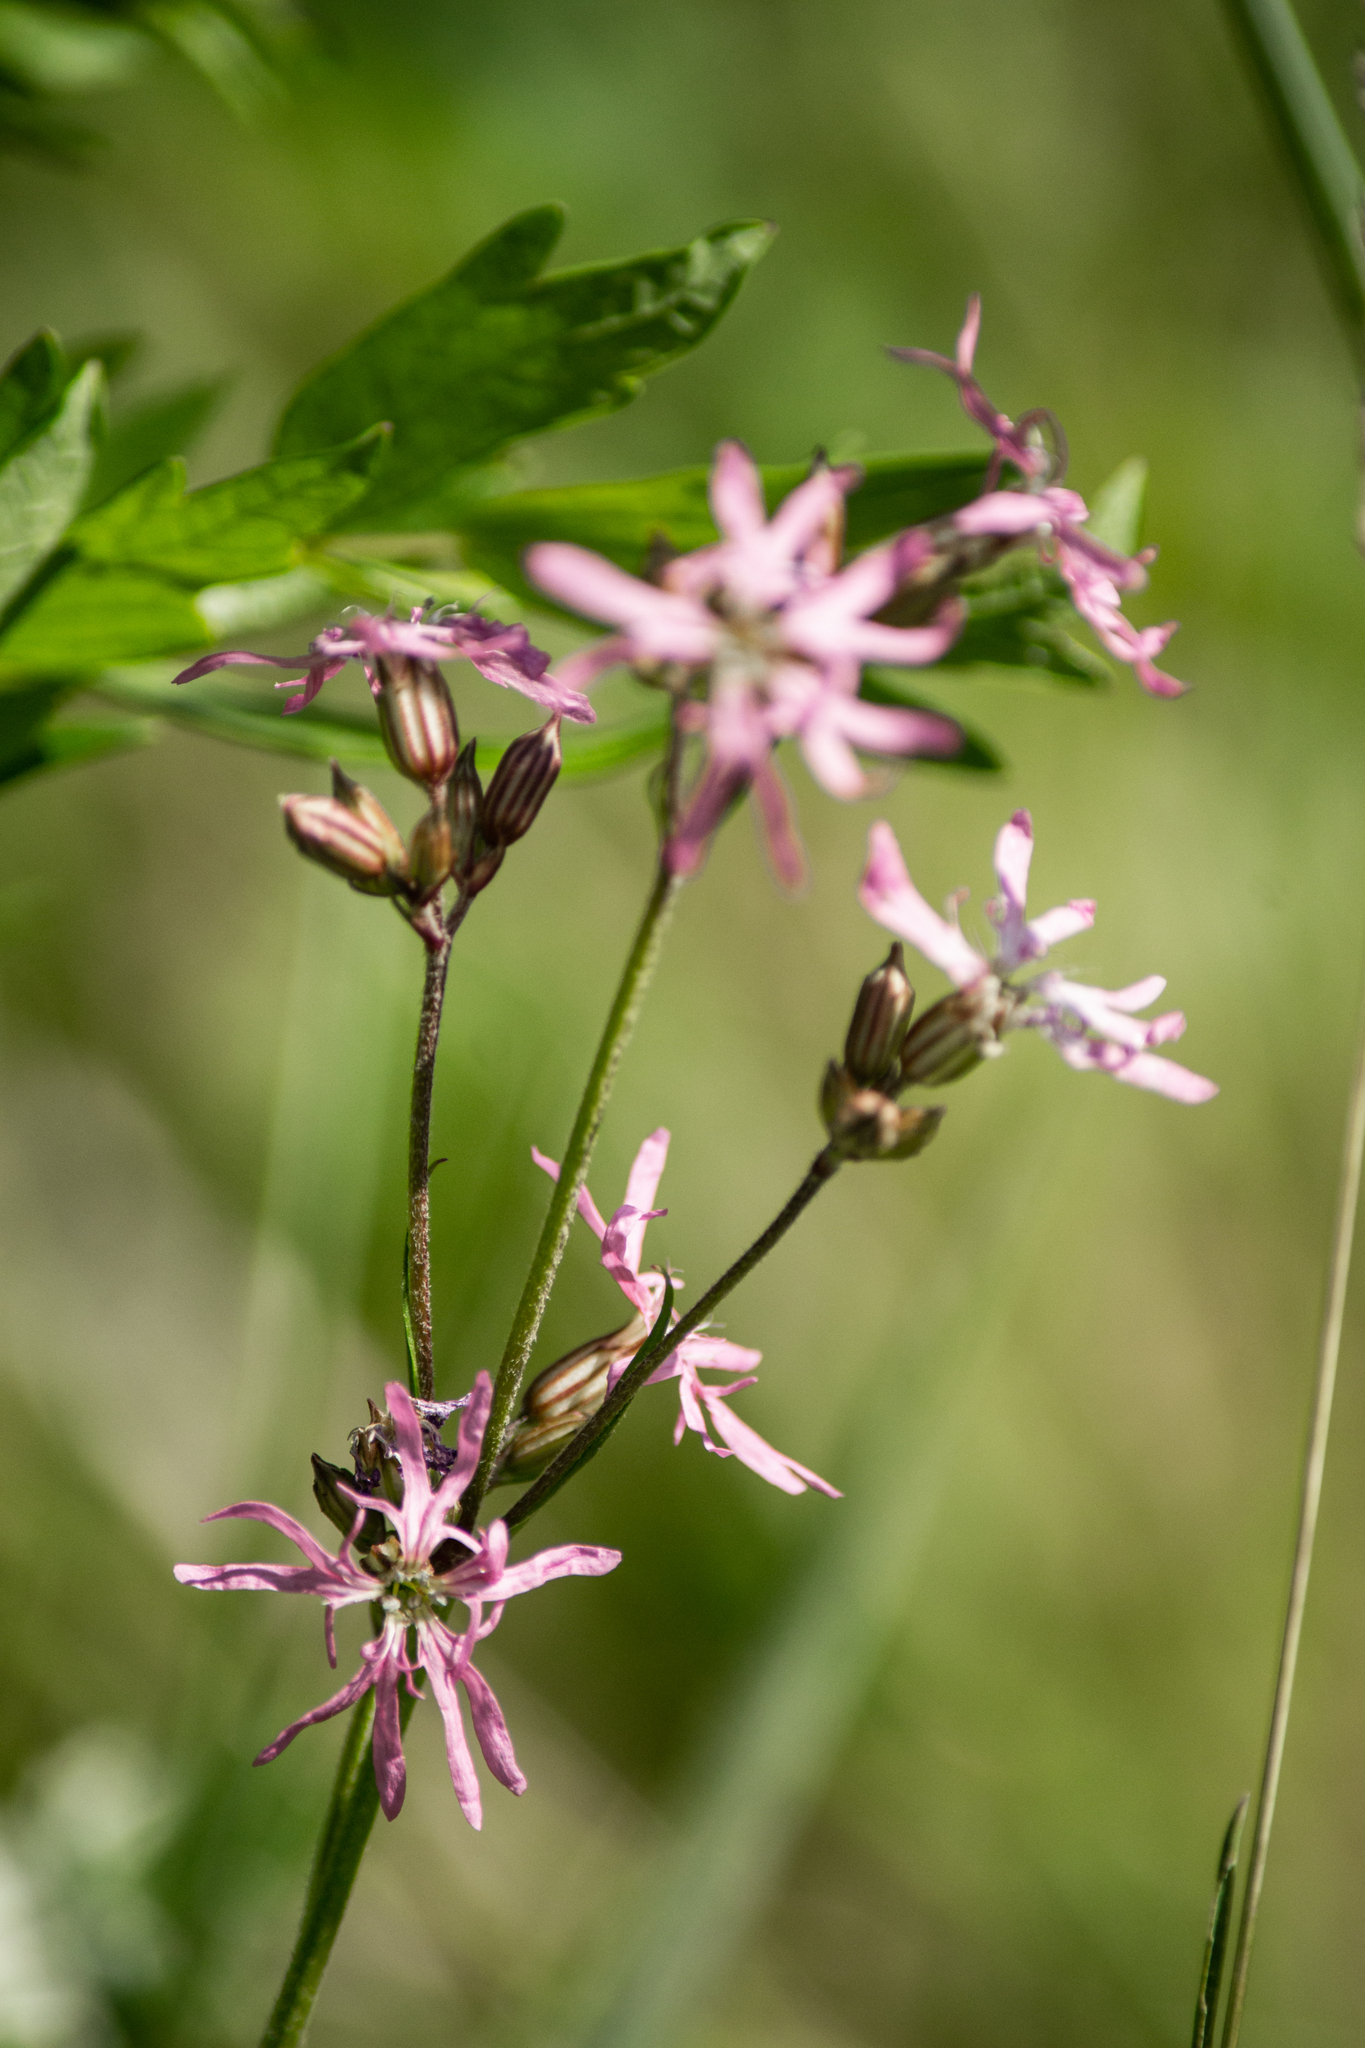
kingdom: Plantae
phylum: Tracheophyta
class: Magnoliopsida
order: Caryophyllales
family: Caryophyllaceae
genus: Silene
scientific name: Silene flos-cuculi
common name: Ragged-robin
